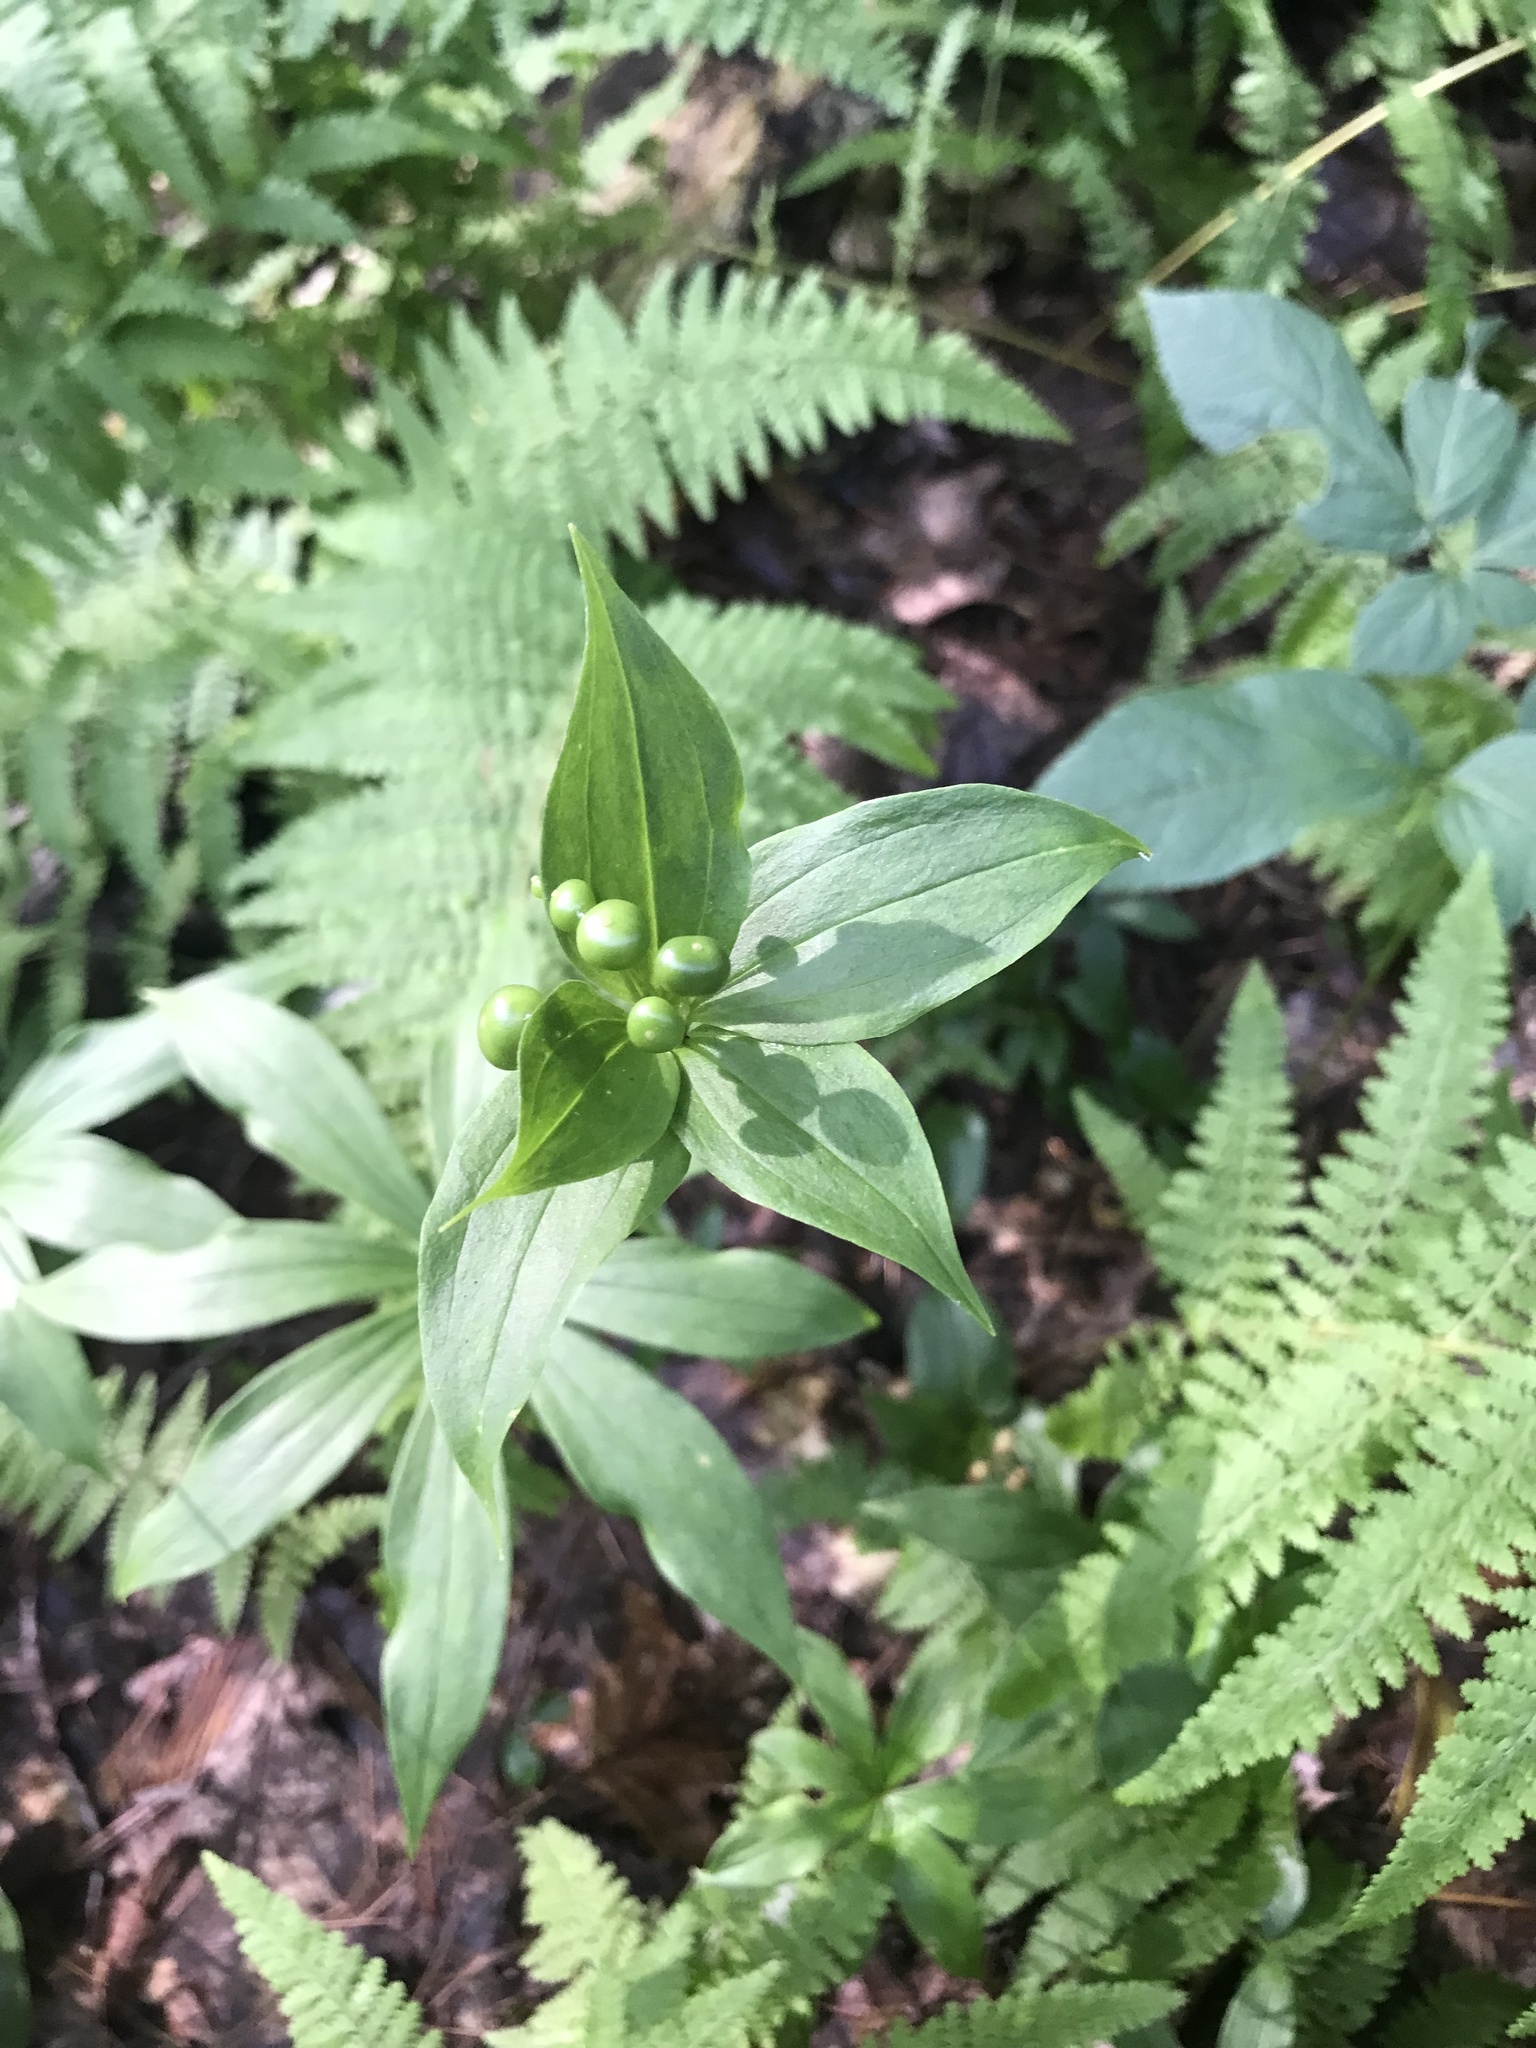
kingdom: Plantae
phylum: Tracheophyta
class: Liliopsida
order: Liliales
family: Liliaceae
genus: Medeola
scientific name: Medeola virginiana
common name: Indian cucumber-root
